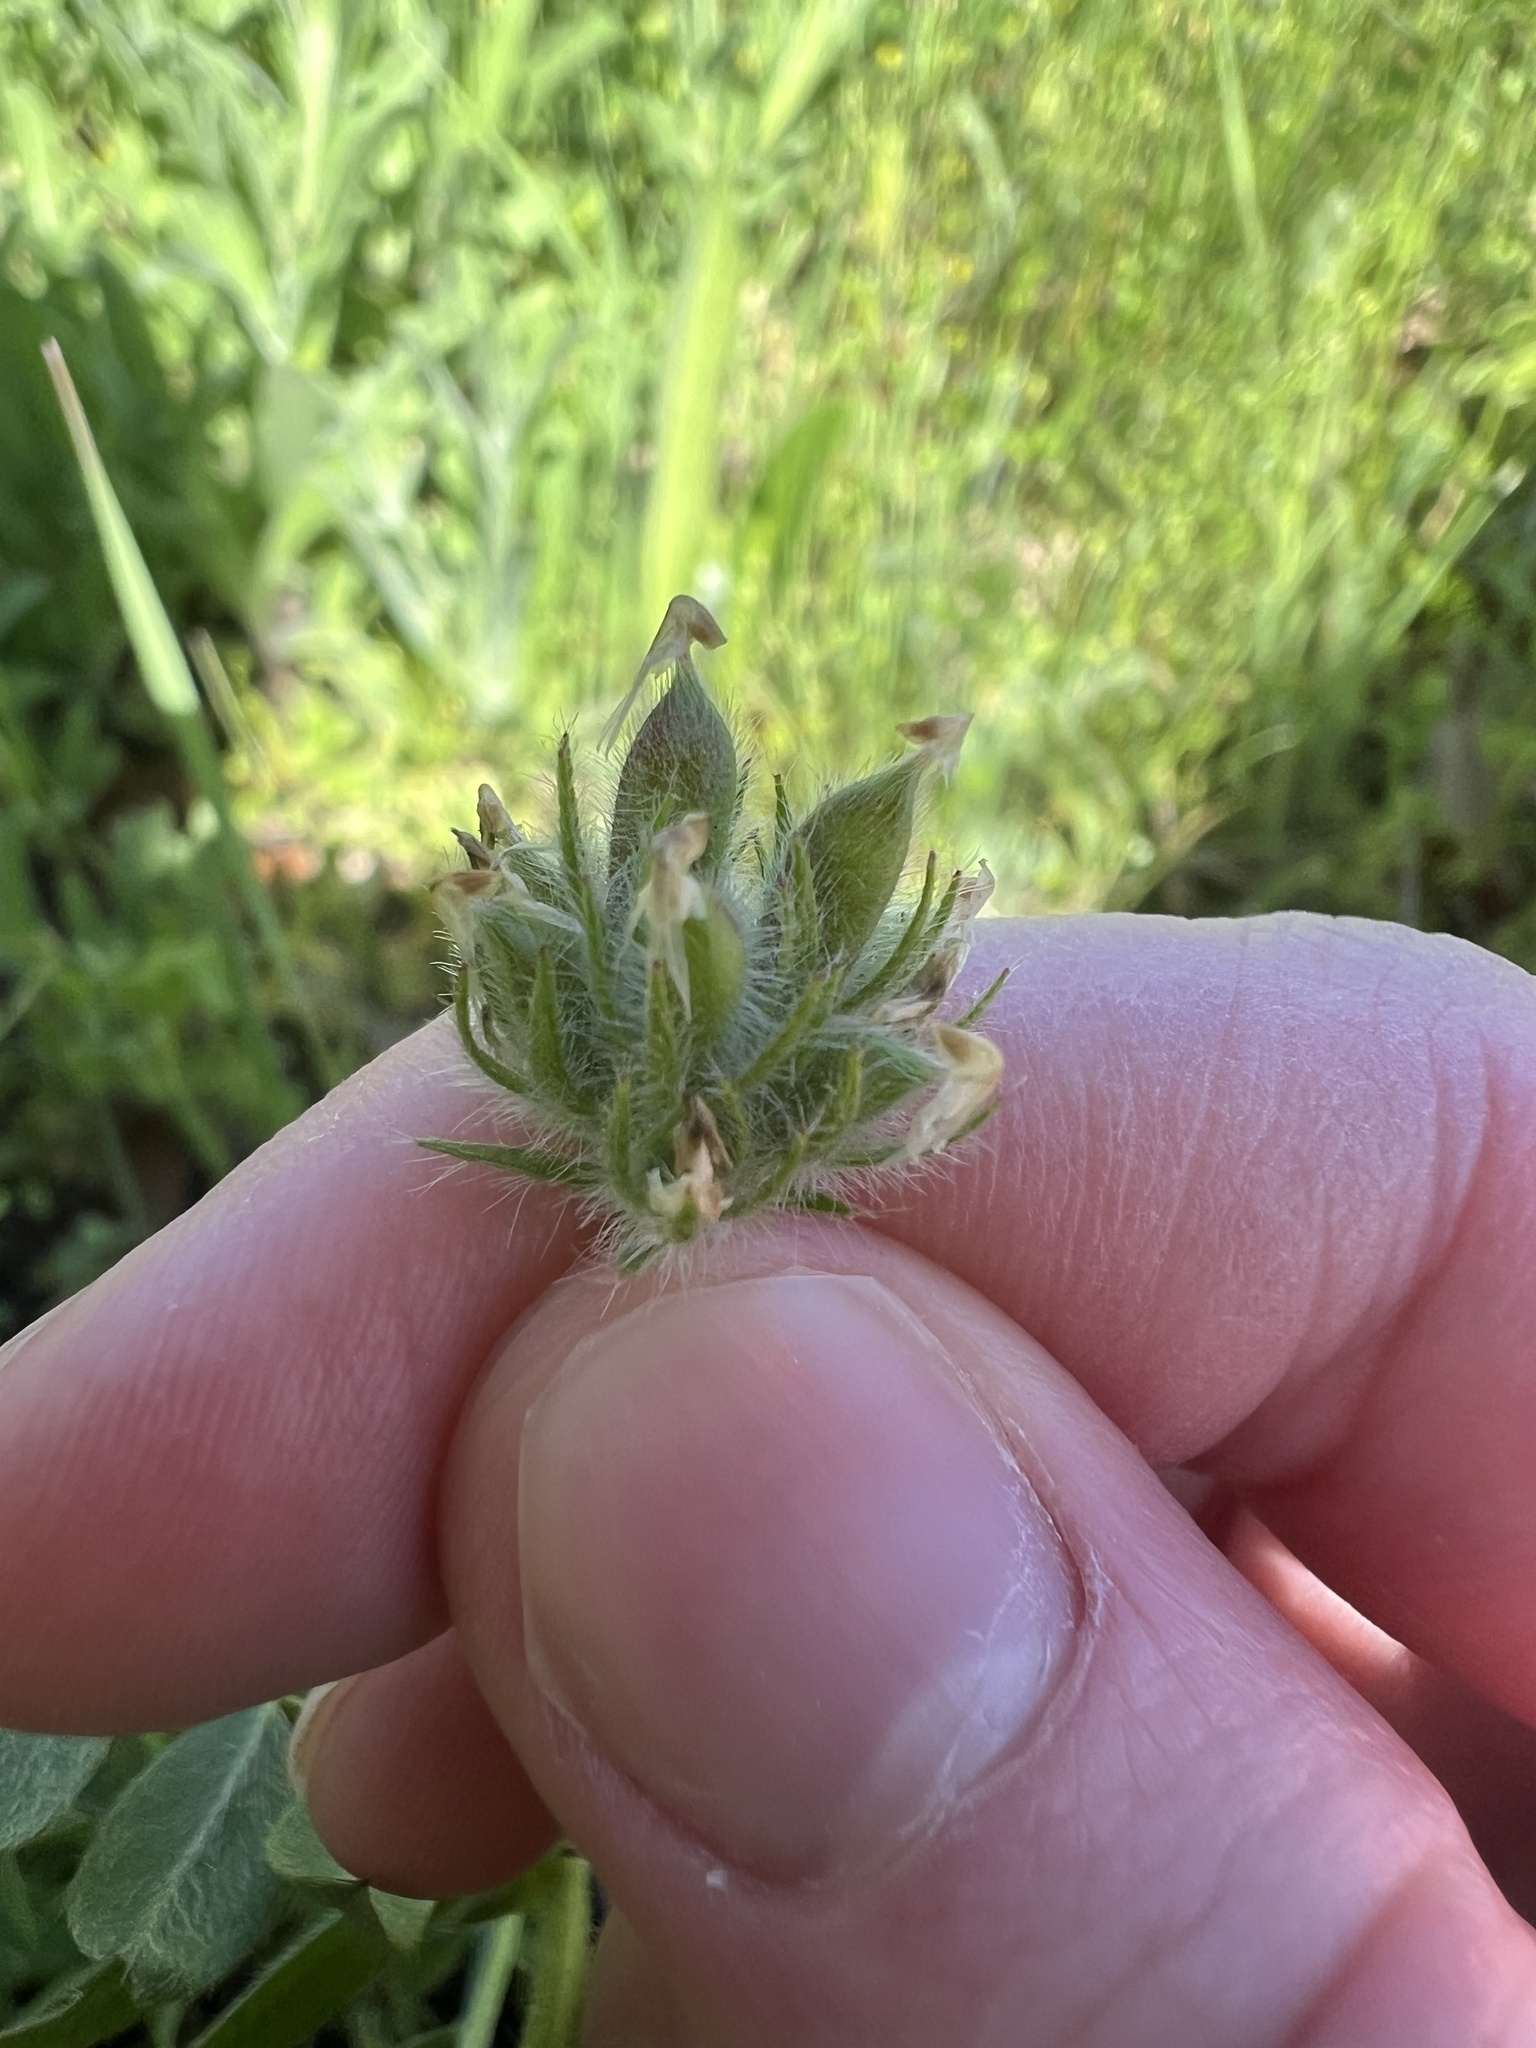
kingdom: Plantae
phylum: Tracheophyta
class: Magnoliopsida
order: Fabales
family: Fabaceae
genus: Astragalus
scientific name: Astragalus wrightii
